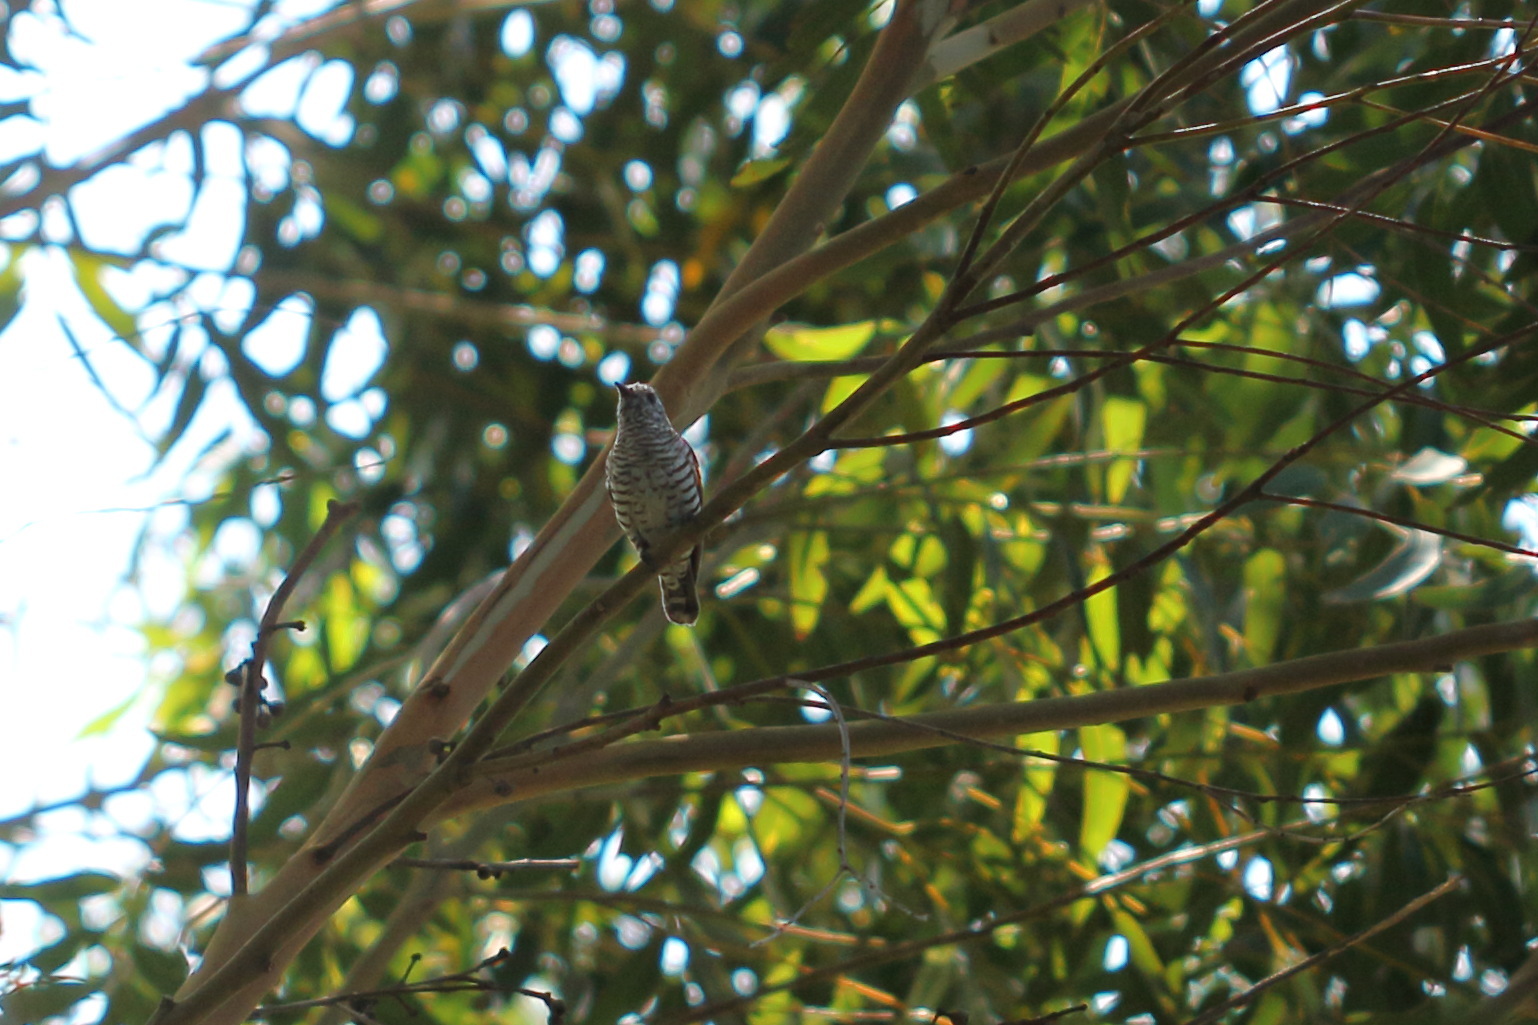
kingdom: Animalia
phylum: Chordata
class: Aves
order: Cuculiformes
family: Cuculidae
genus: Chrysococcyx
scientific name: Chrysococcyx lucidus
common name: Shining bronze cuckoo
